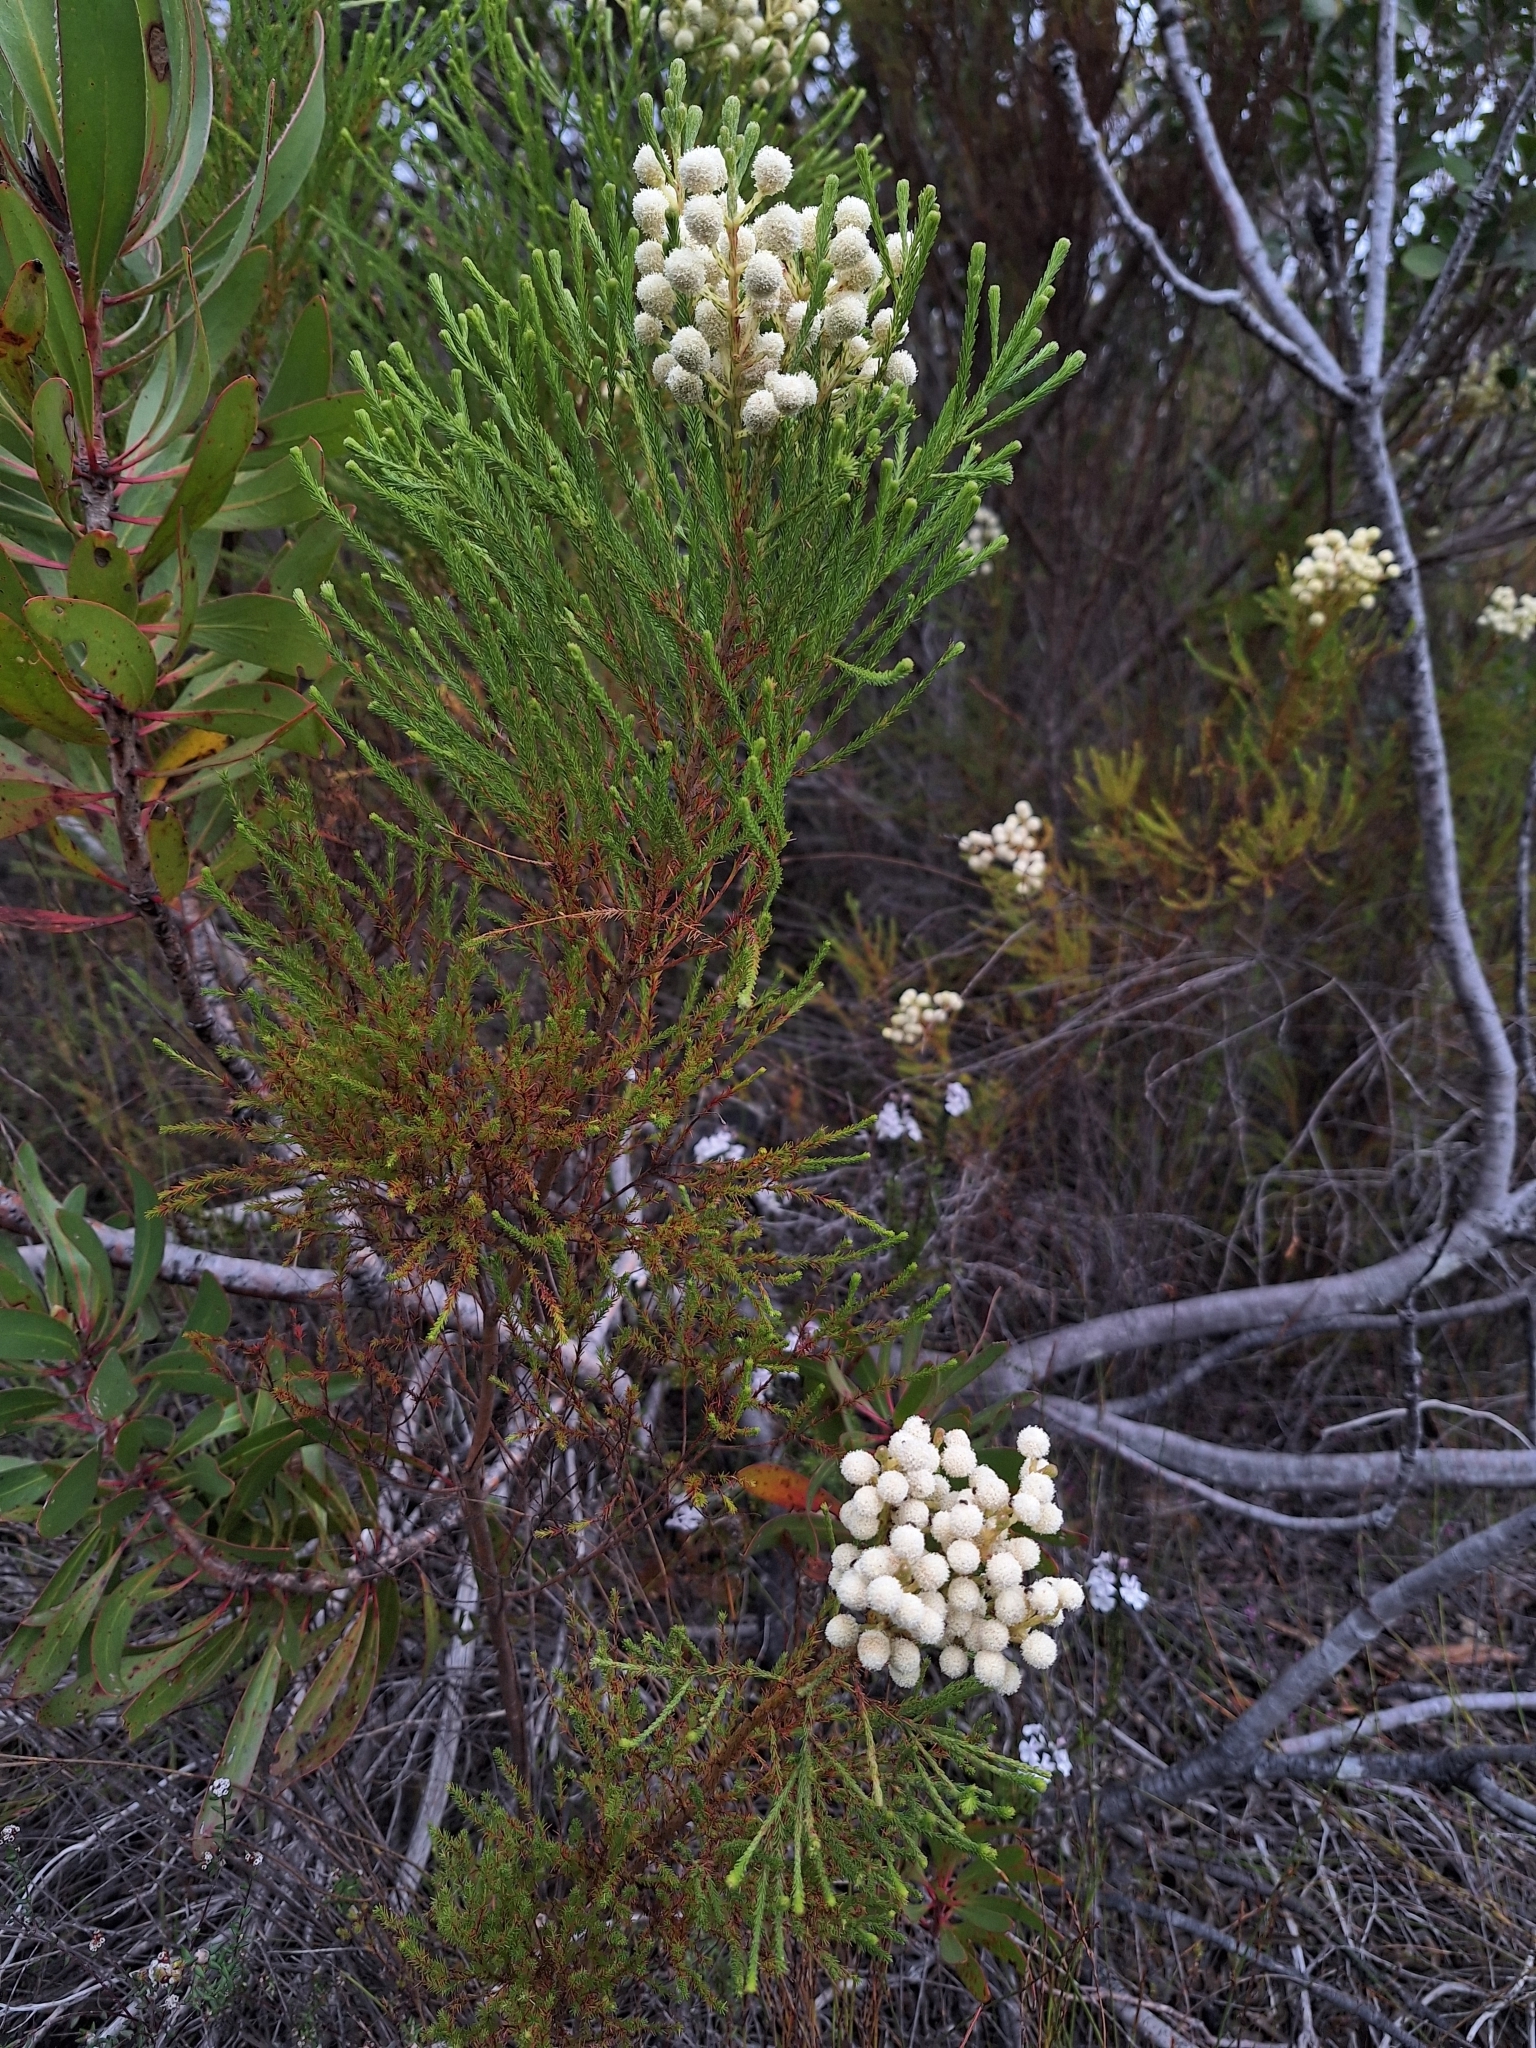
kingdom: Plantae
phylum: Tracheophyta
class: Magnoliopsida
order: Bruniales
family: Bruniaceae
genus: Berzelia
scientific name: Berzelia lanuginosa
